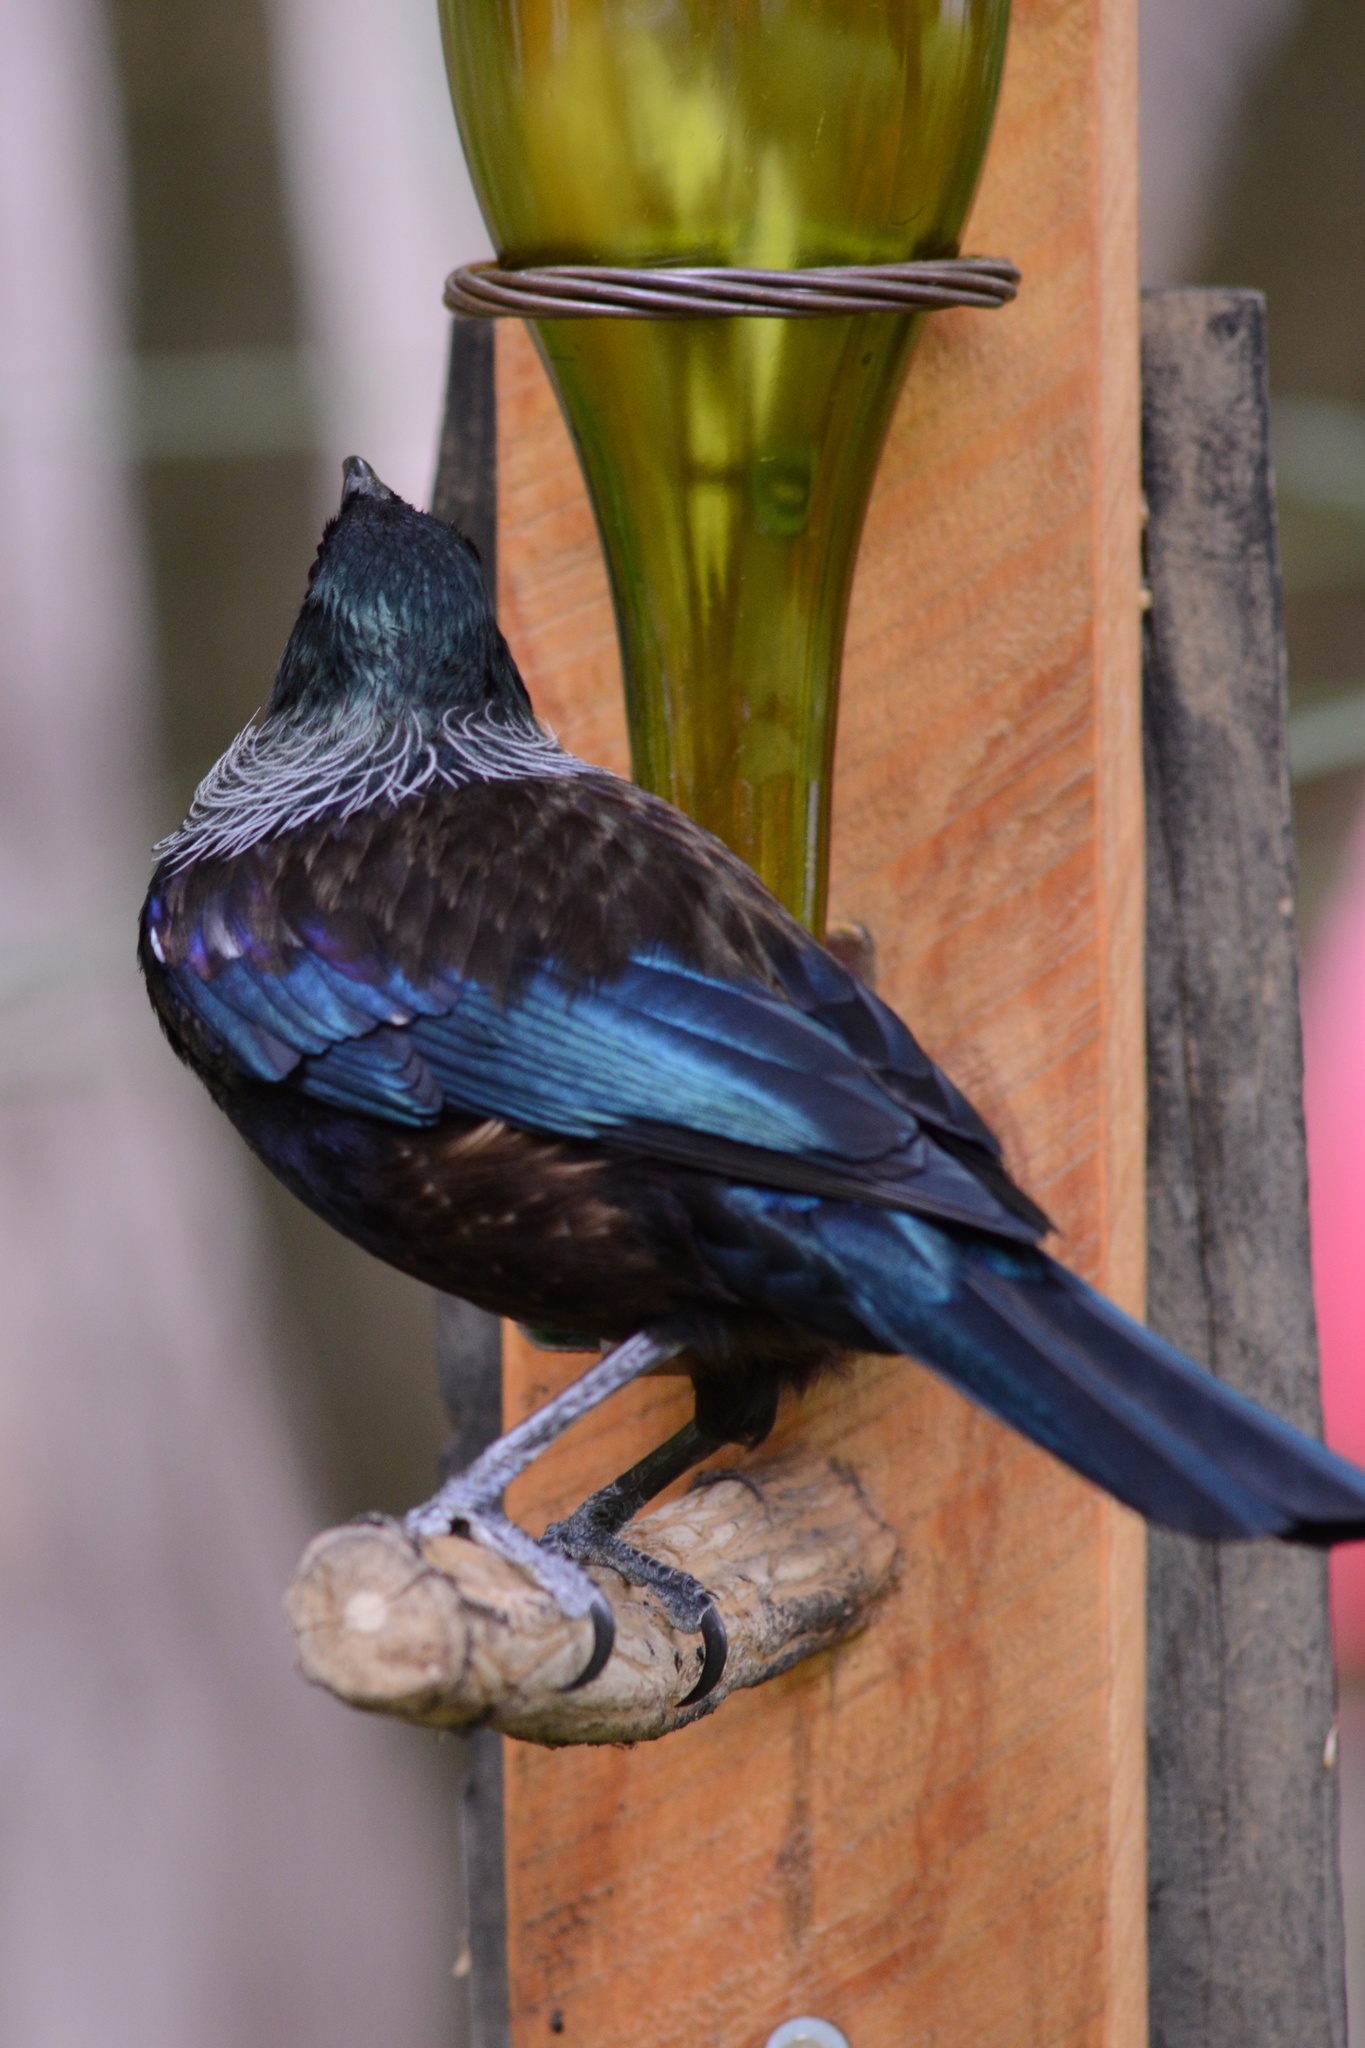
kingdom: Animalia
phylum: Chordata
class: Aves
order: Passeriformes
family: Meliphagidae
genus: Prosthemadera
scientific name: Prosthemadera novaeseelandiae
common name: Tui
